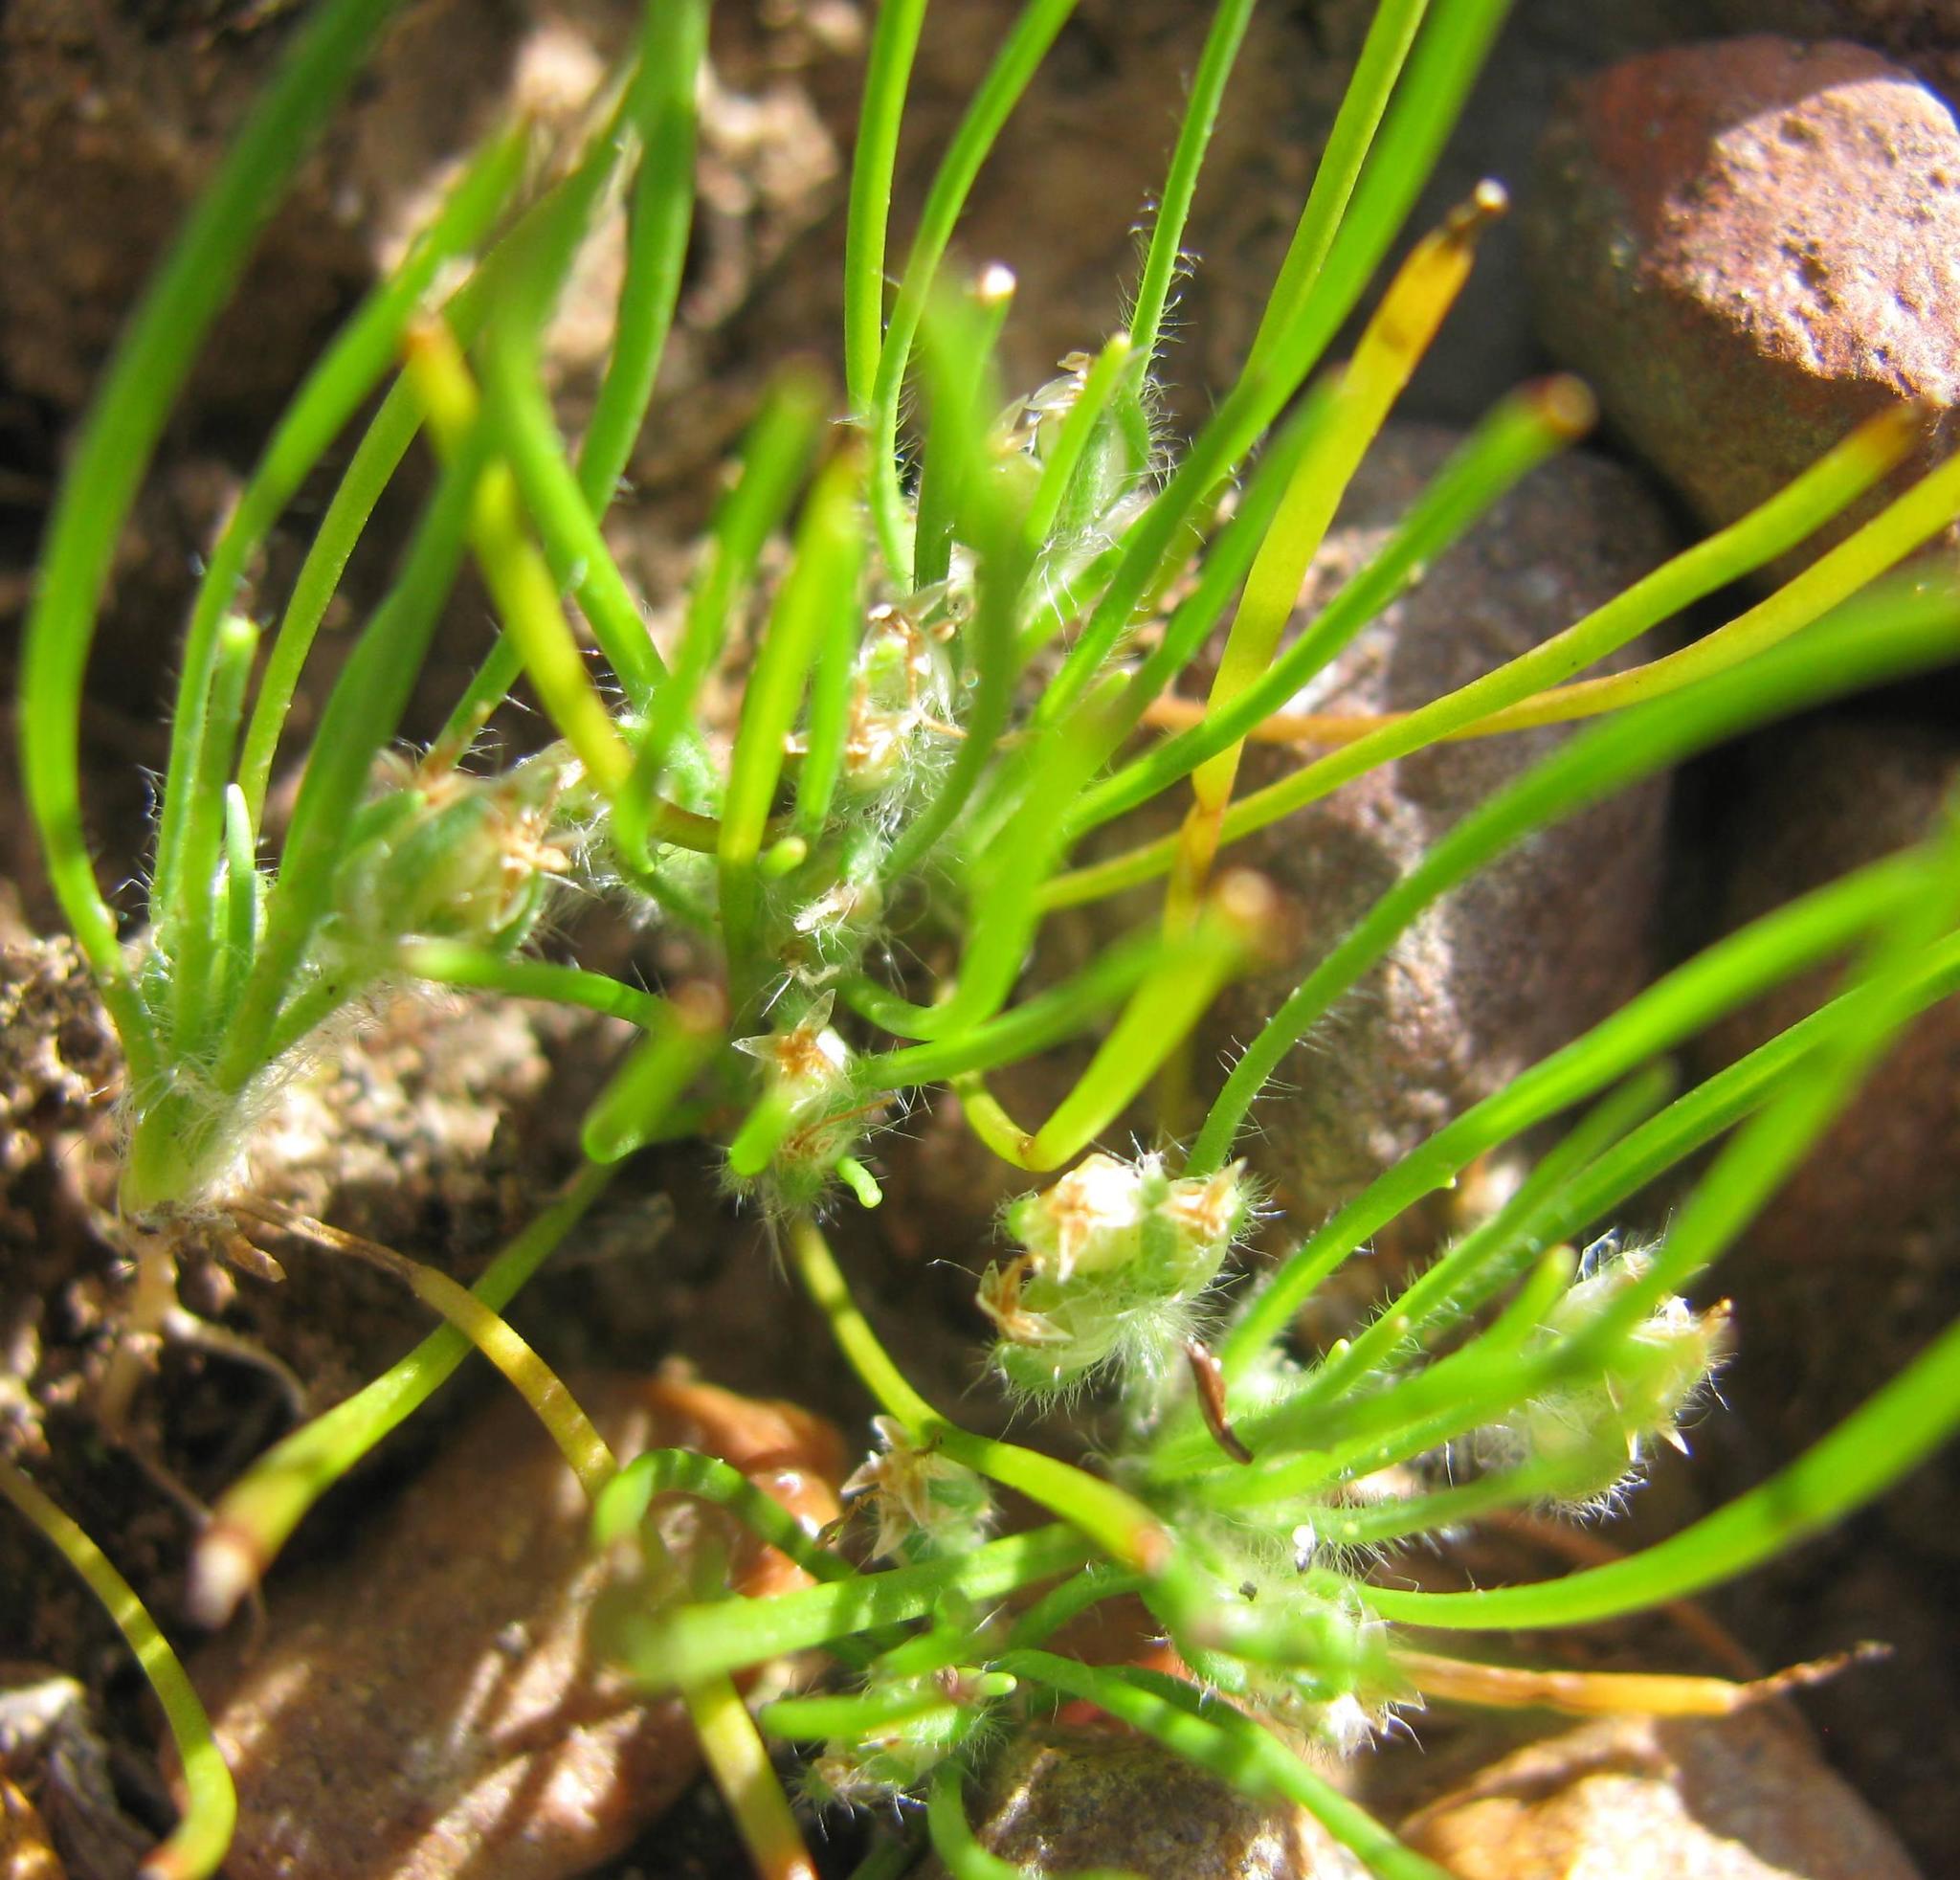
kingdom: Plantae
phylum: Tracheophyta
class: Magnoliopsida
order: Lamiales
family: Plantaginaceae
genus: Plantago
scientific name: Plantago cafra
